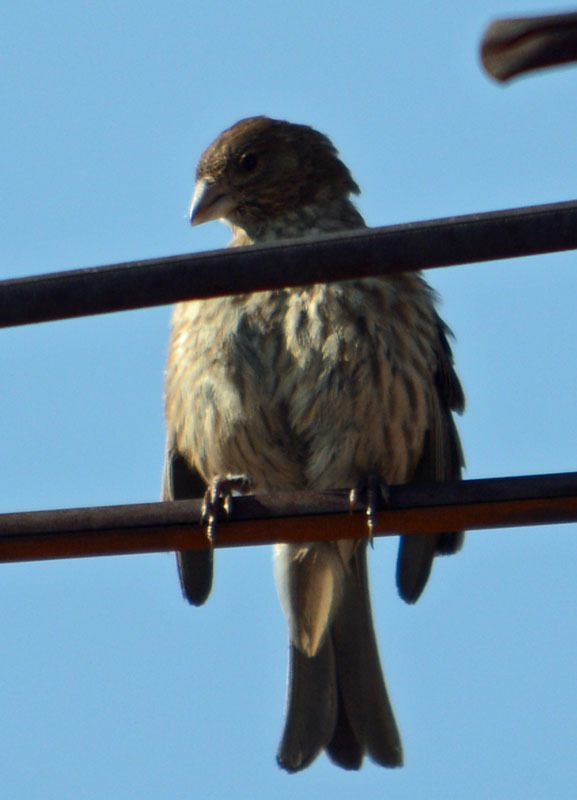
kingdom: Animalia
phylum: Chordata
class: Aves
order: Passeriformes
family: Fringillidae
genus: Haemorhous
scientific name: Haemorhous mexicanus
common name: House finch
